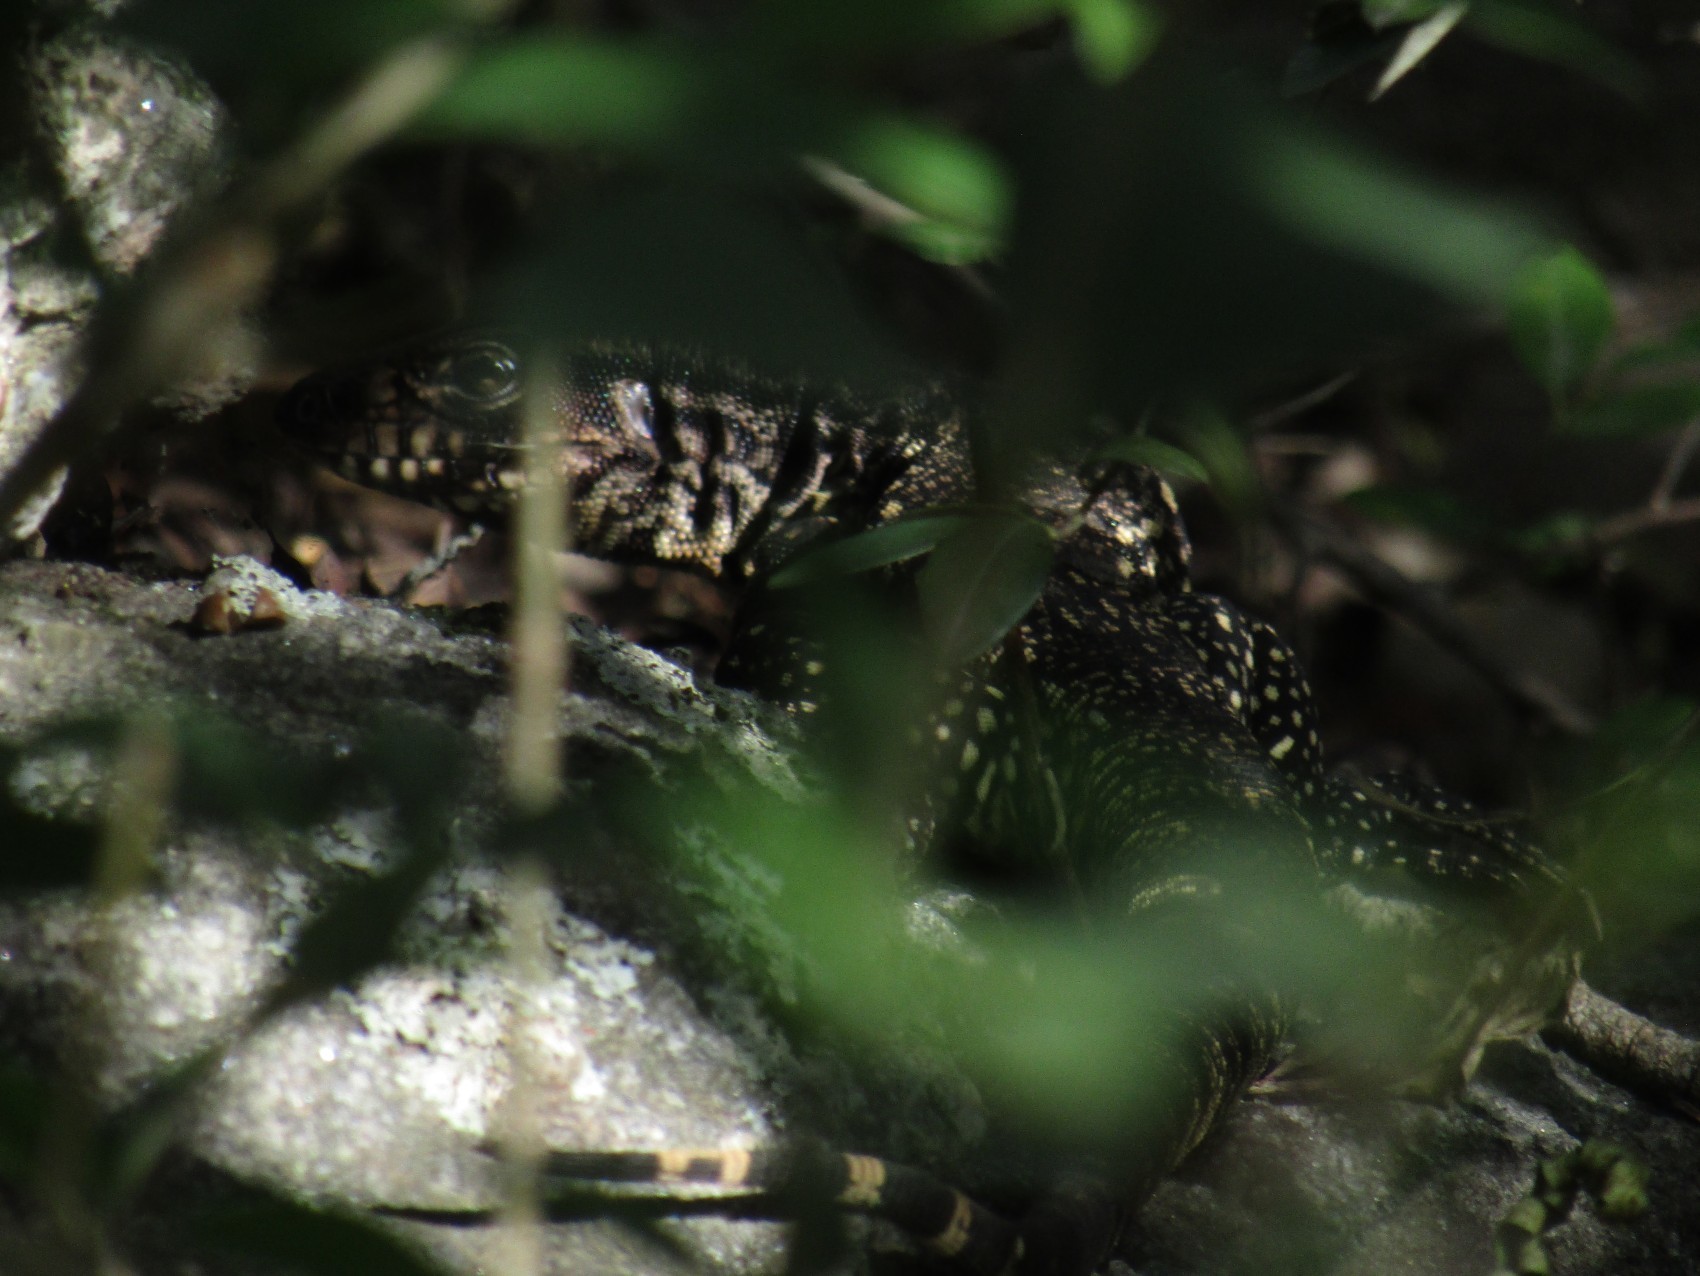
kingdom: Animalia
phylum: Chordata
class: Squamata
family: Teiidae
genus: Salvator
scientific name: Salvator merianae
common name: Argentine black and white tegu
